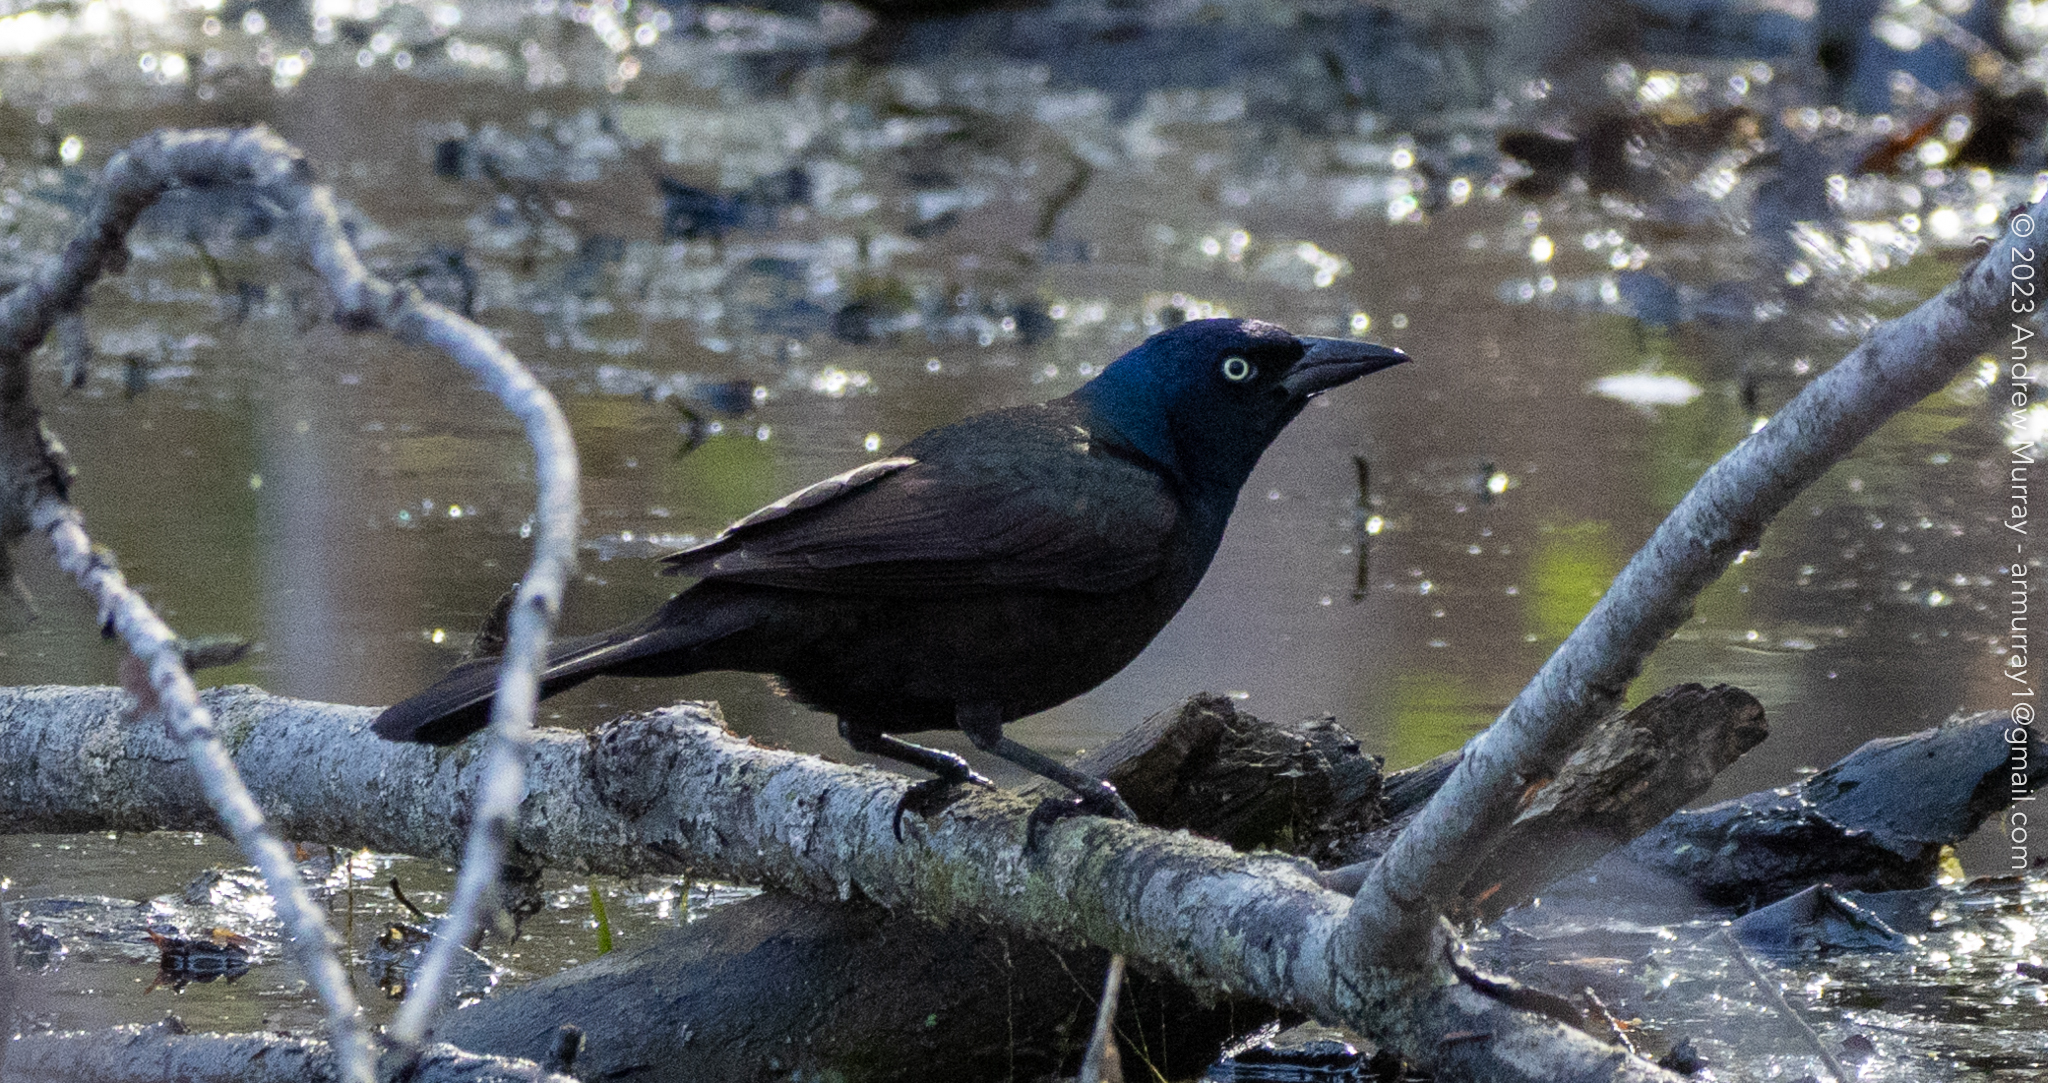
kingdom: Animalia
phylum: Chordata
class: Aves
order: Passeriformes
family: Icteridae
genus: Quiscalus
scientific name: Quiscalus quiscula
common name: Common grackle
